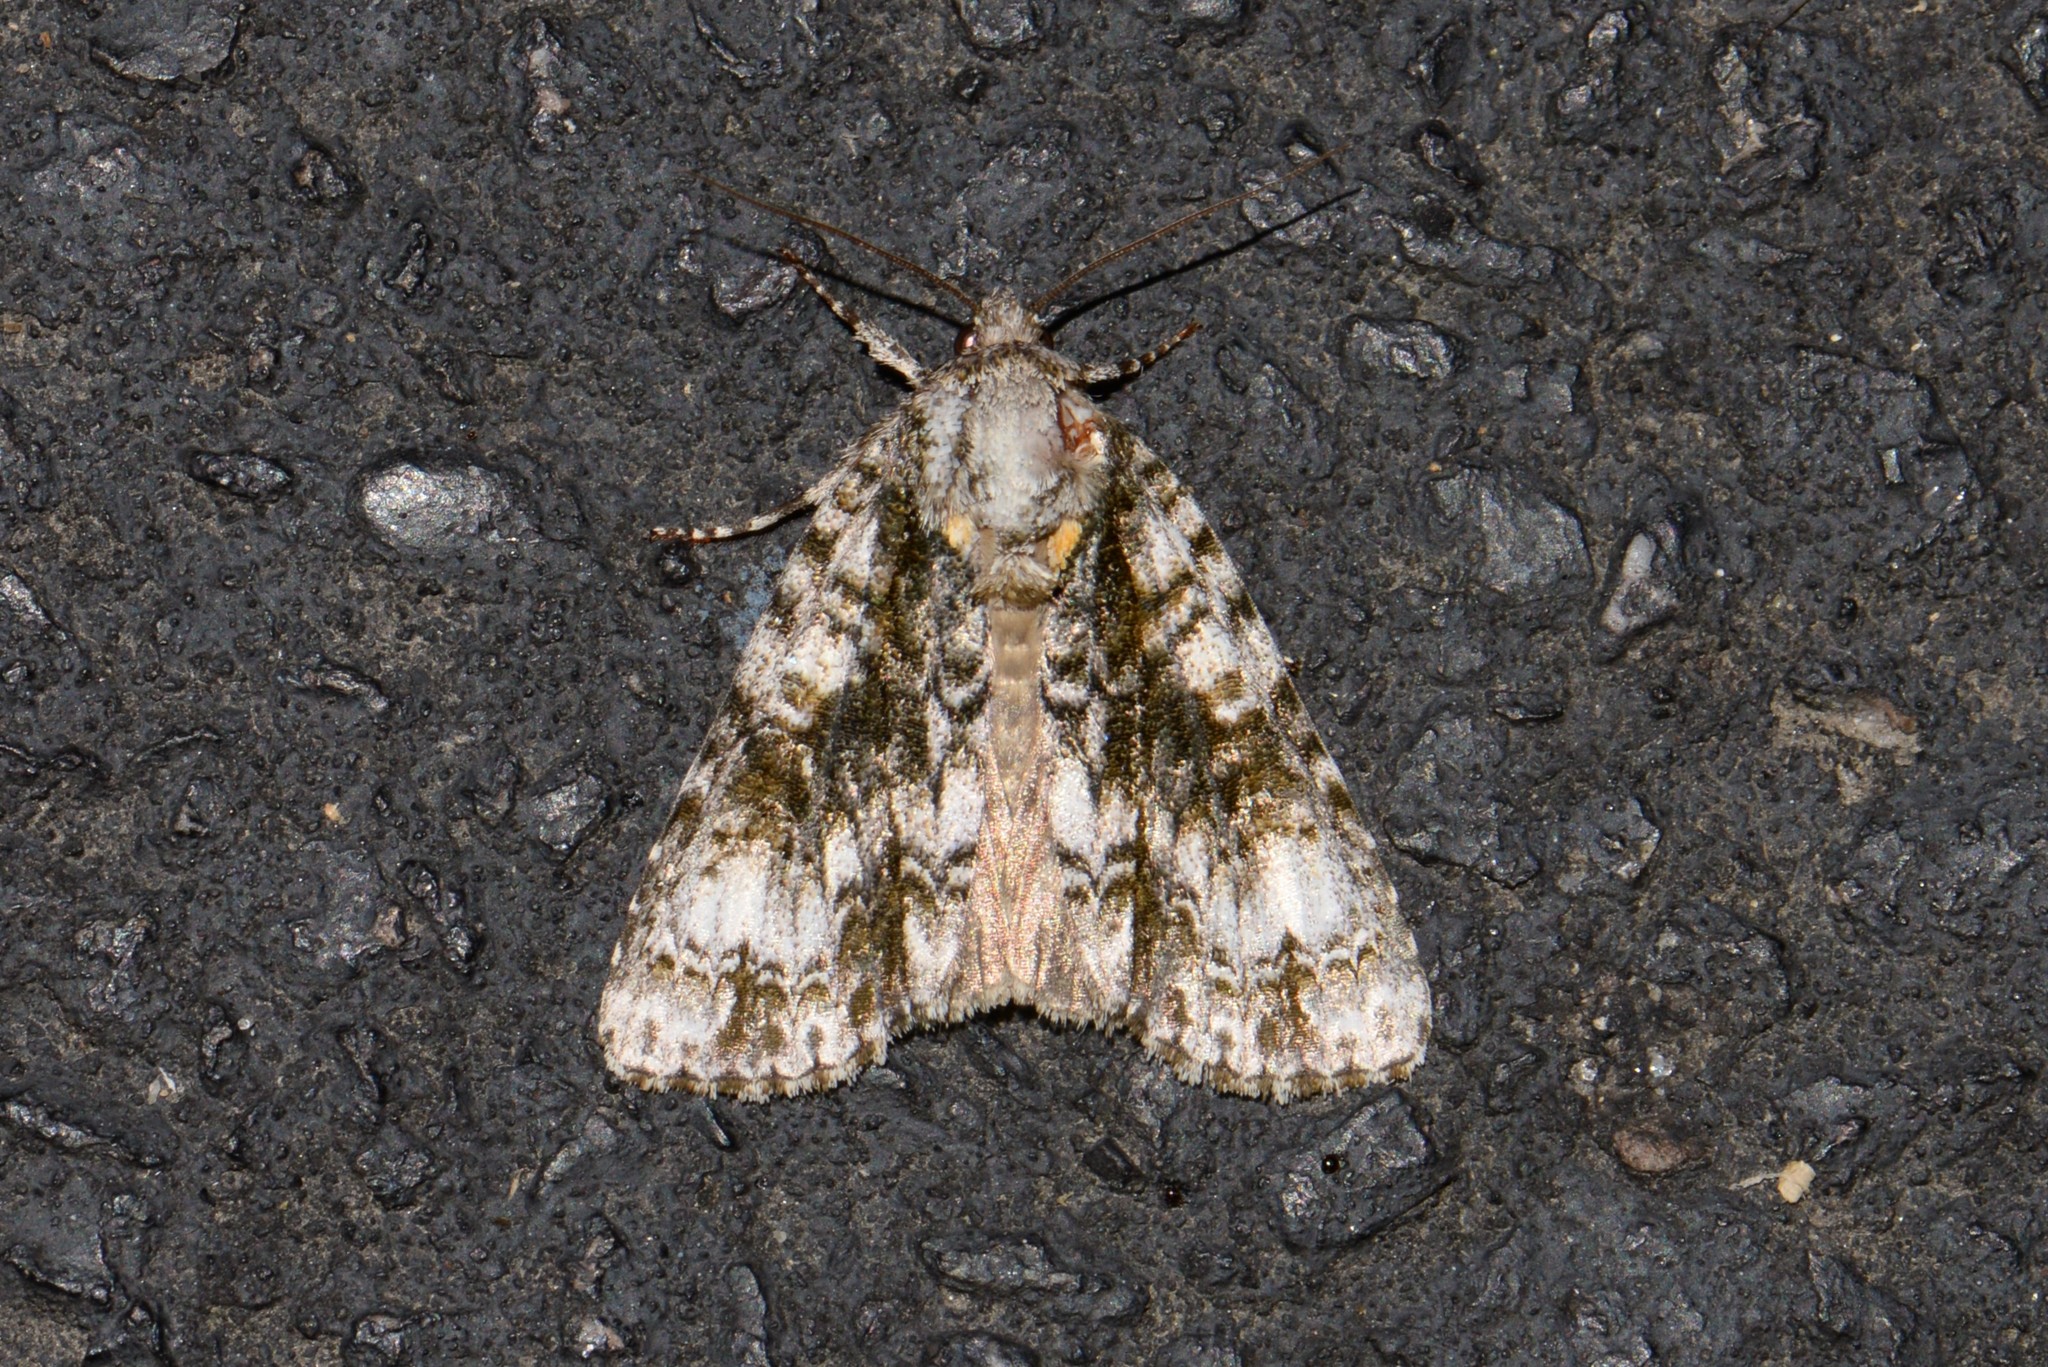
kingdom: Animalia
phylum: Arthropoda
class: Insecta
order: Lepidoptera
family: Noctuidae
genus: Acronicta
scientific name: Acronicta superans
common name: Splendid dagger
